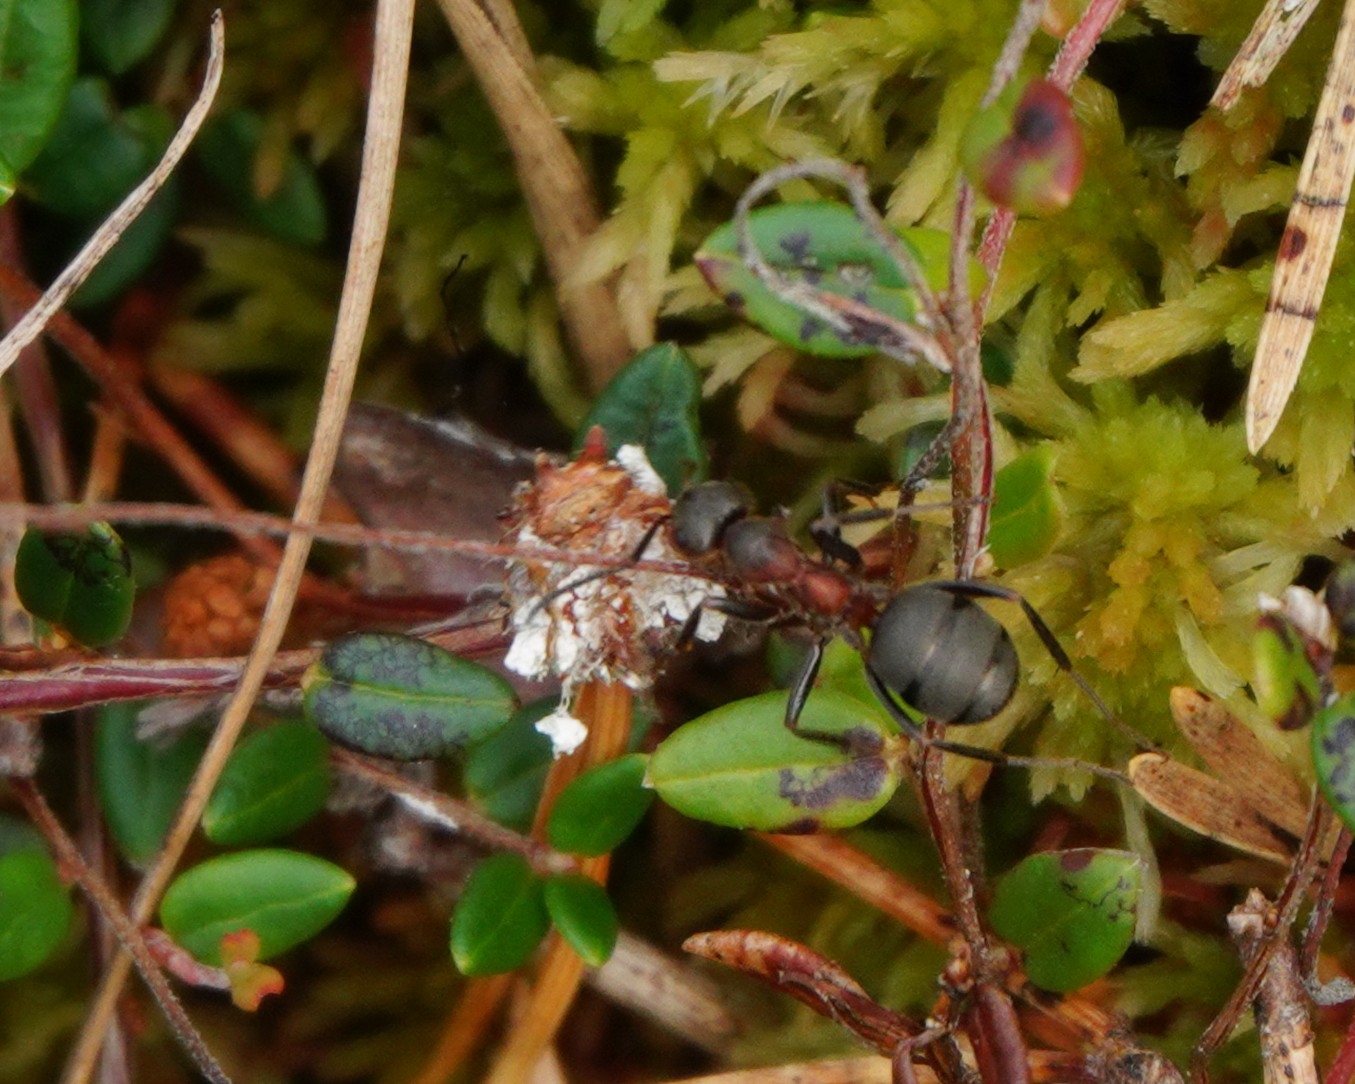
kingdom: Animalia
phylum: Arthropoda
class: Insecta
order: Hymenoptera
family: Formicidae
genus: Formica
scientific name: Formica rufa
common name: Red wood ant
